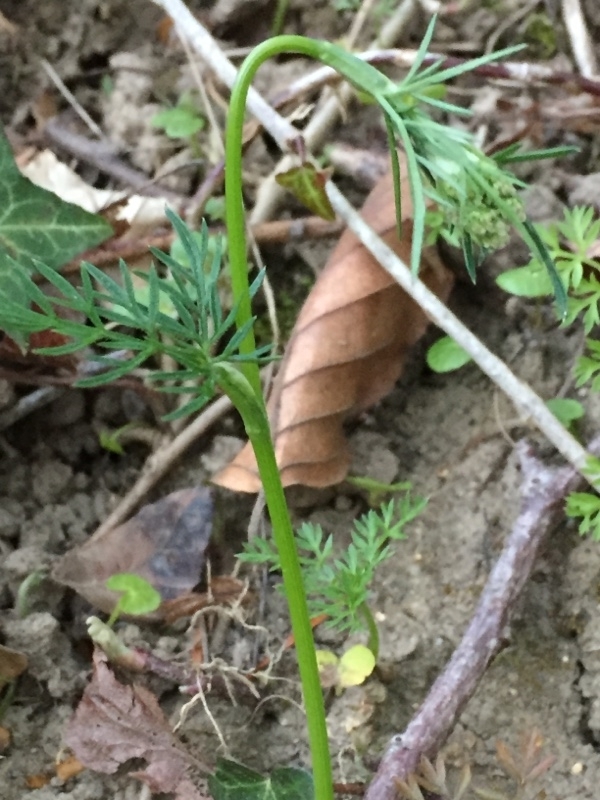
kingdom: Plantae
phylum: Tracheophyta
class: Magnoliopsida
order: Apiales
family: Apiaceae
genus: Conopodium
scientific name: Conopodium majus
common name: Pignut
